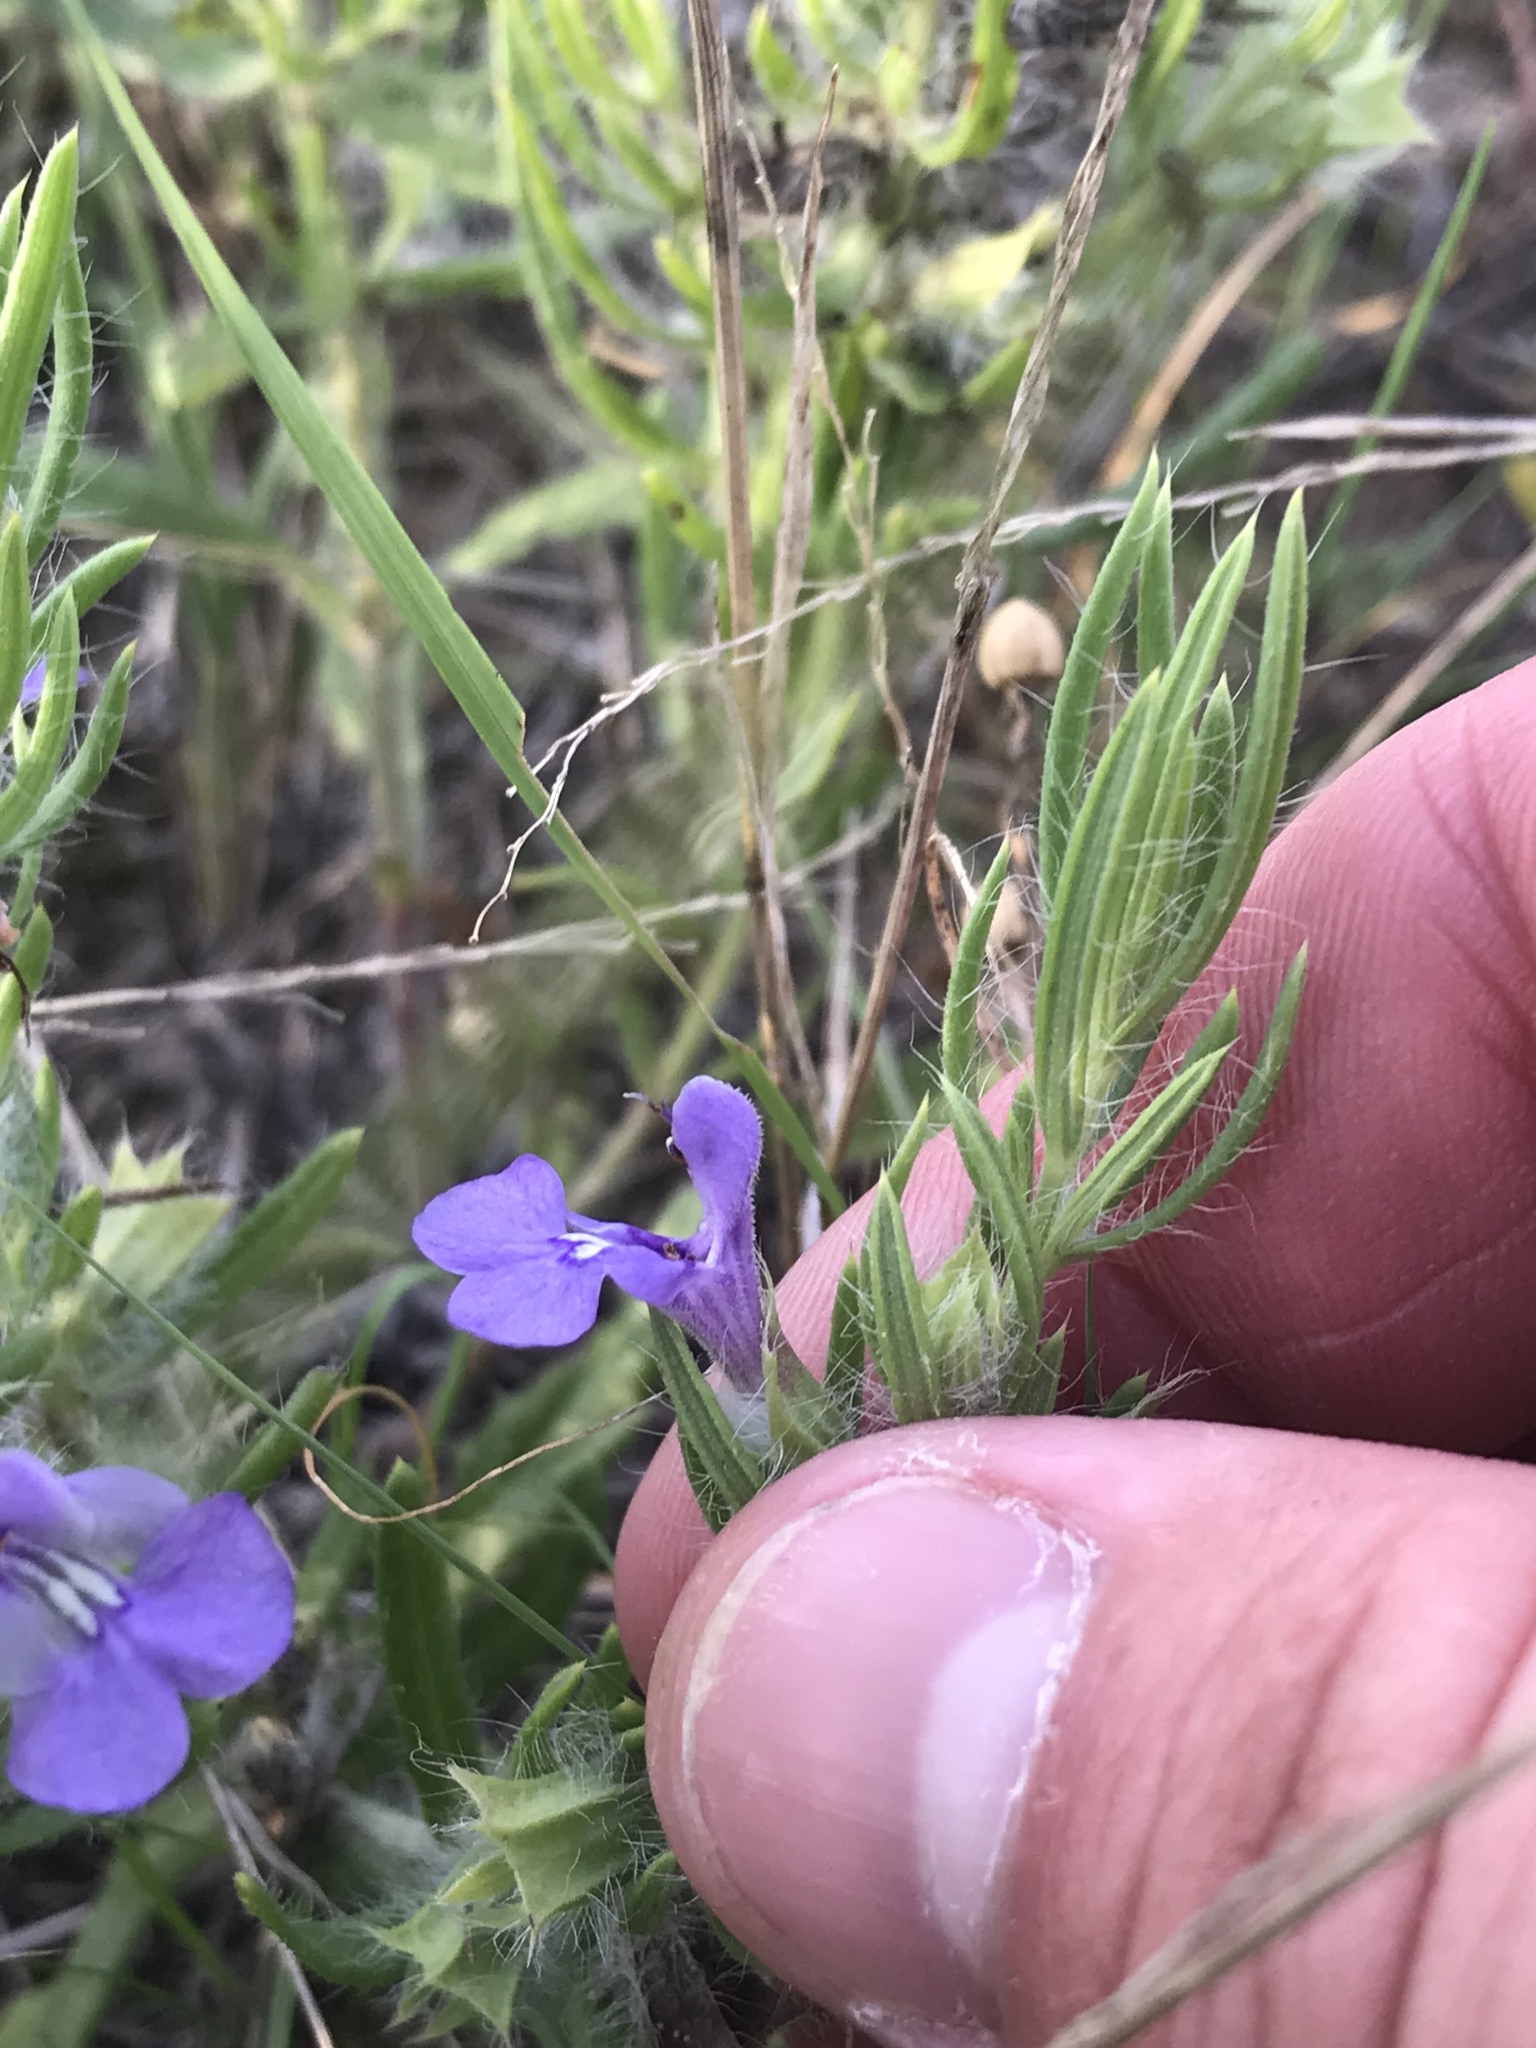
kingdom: Plantae
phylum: Tracheophyta
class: Magnoliopsida
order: Lamiales
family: Lamiaceae
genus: Salvia
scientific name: Salvia texana
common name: Texas sage
